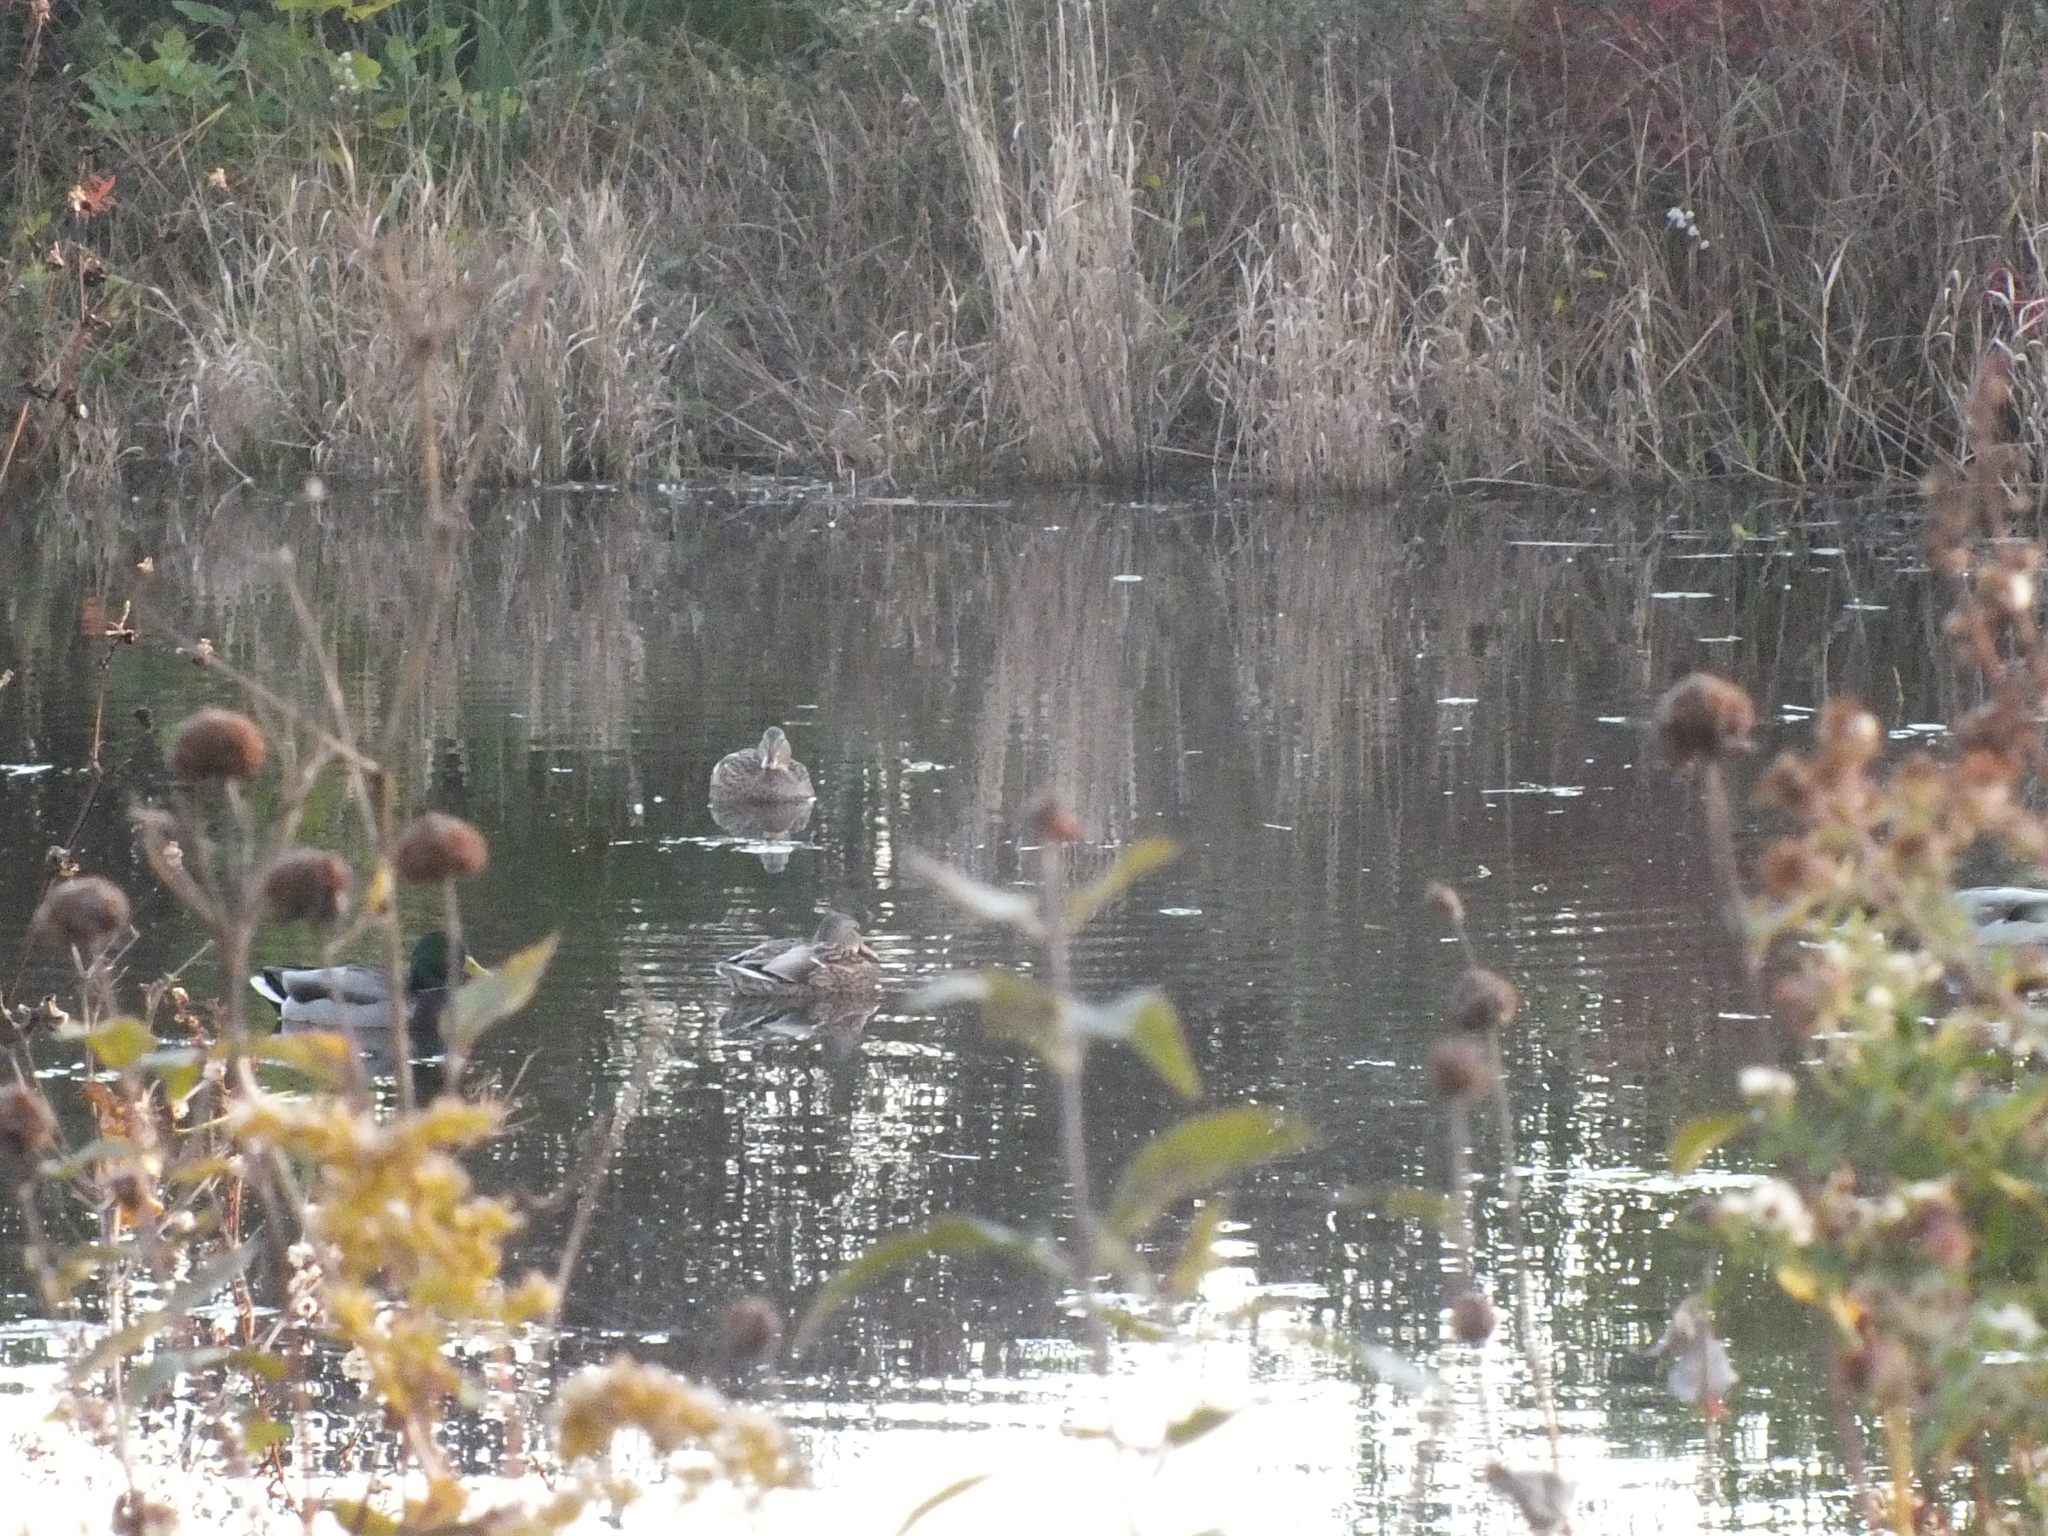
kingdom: Animalia
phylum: Chordata
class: Aves
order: Anseriformes
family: Anatidae
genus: Anas
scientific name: Anas platyrhynchos
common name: Mallard
